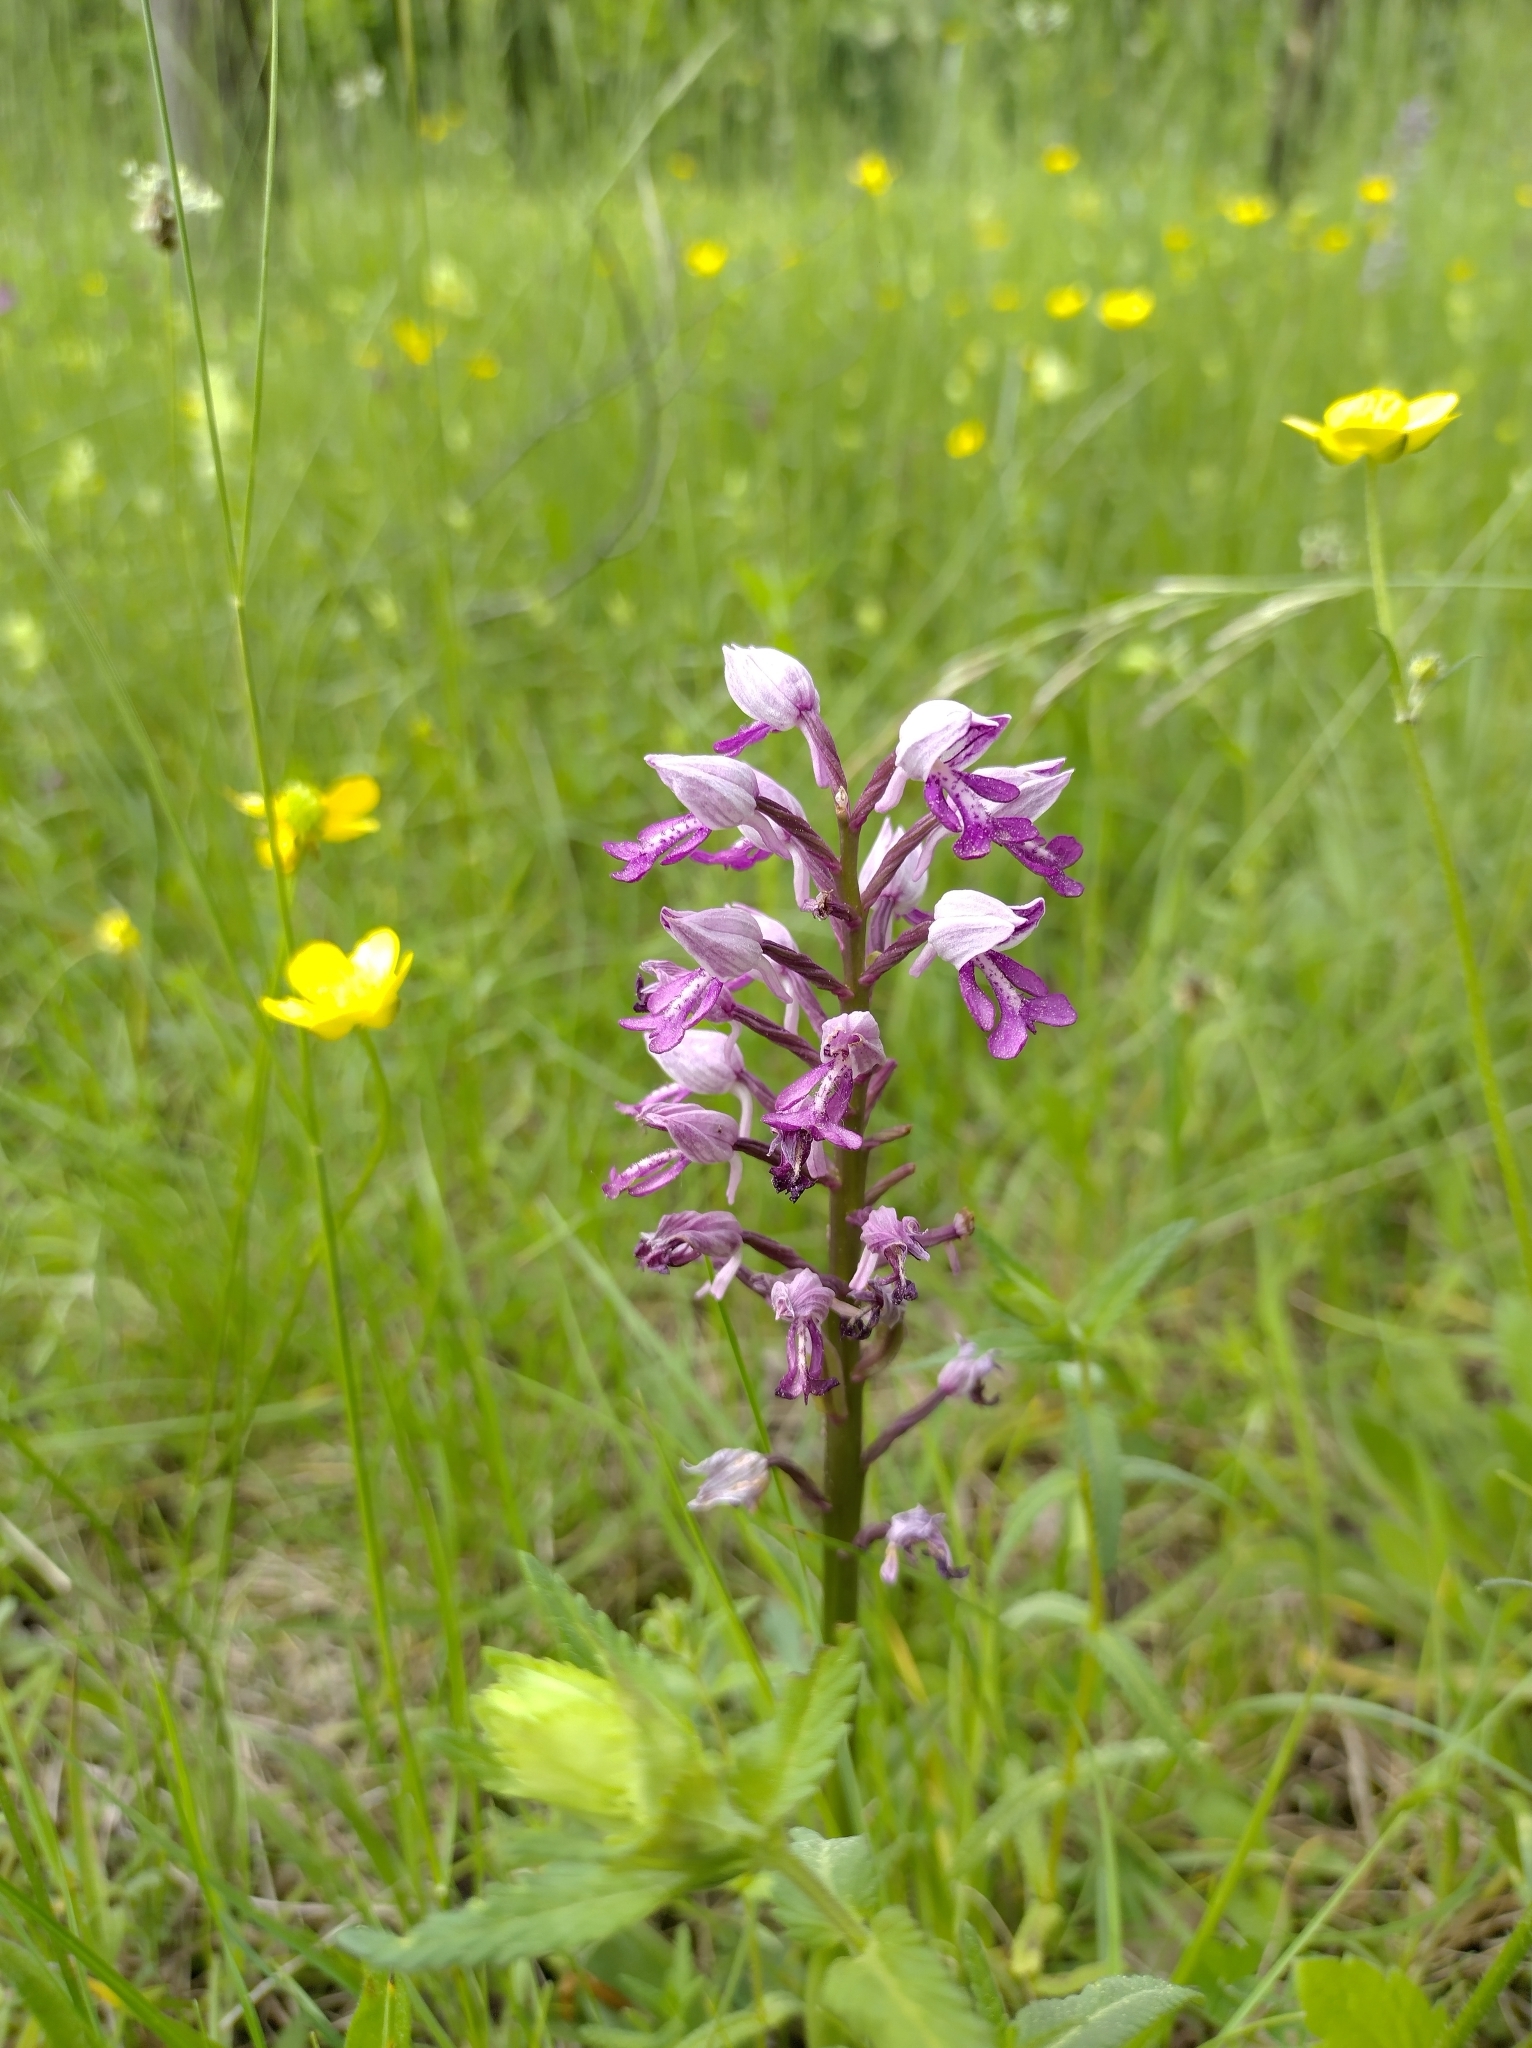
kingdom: Plantae
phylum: Tracheophyta
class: Liliopsida
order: Asparagales
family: Orchidaceae
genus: Orchis
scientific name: Orchis militaris
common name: Military orchid
